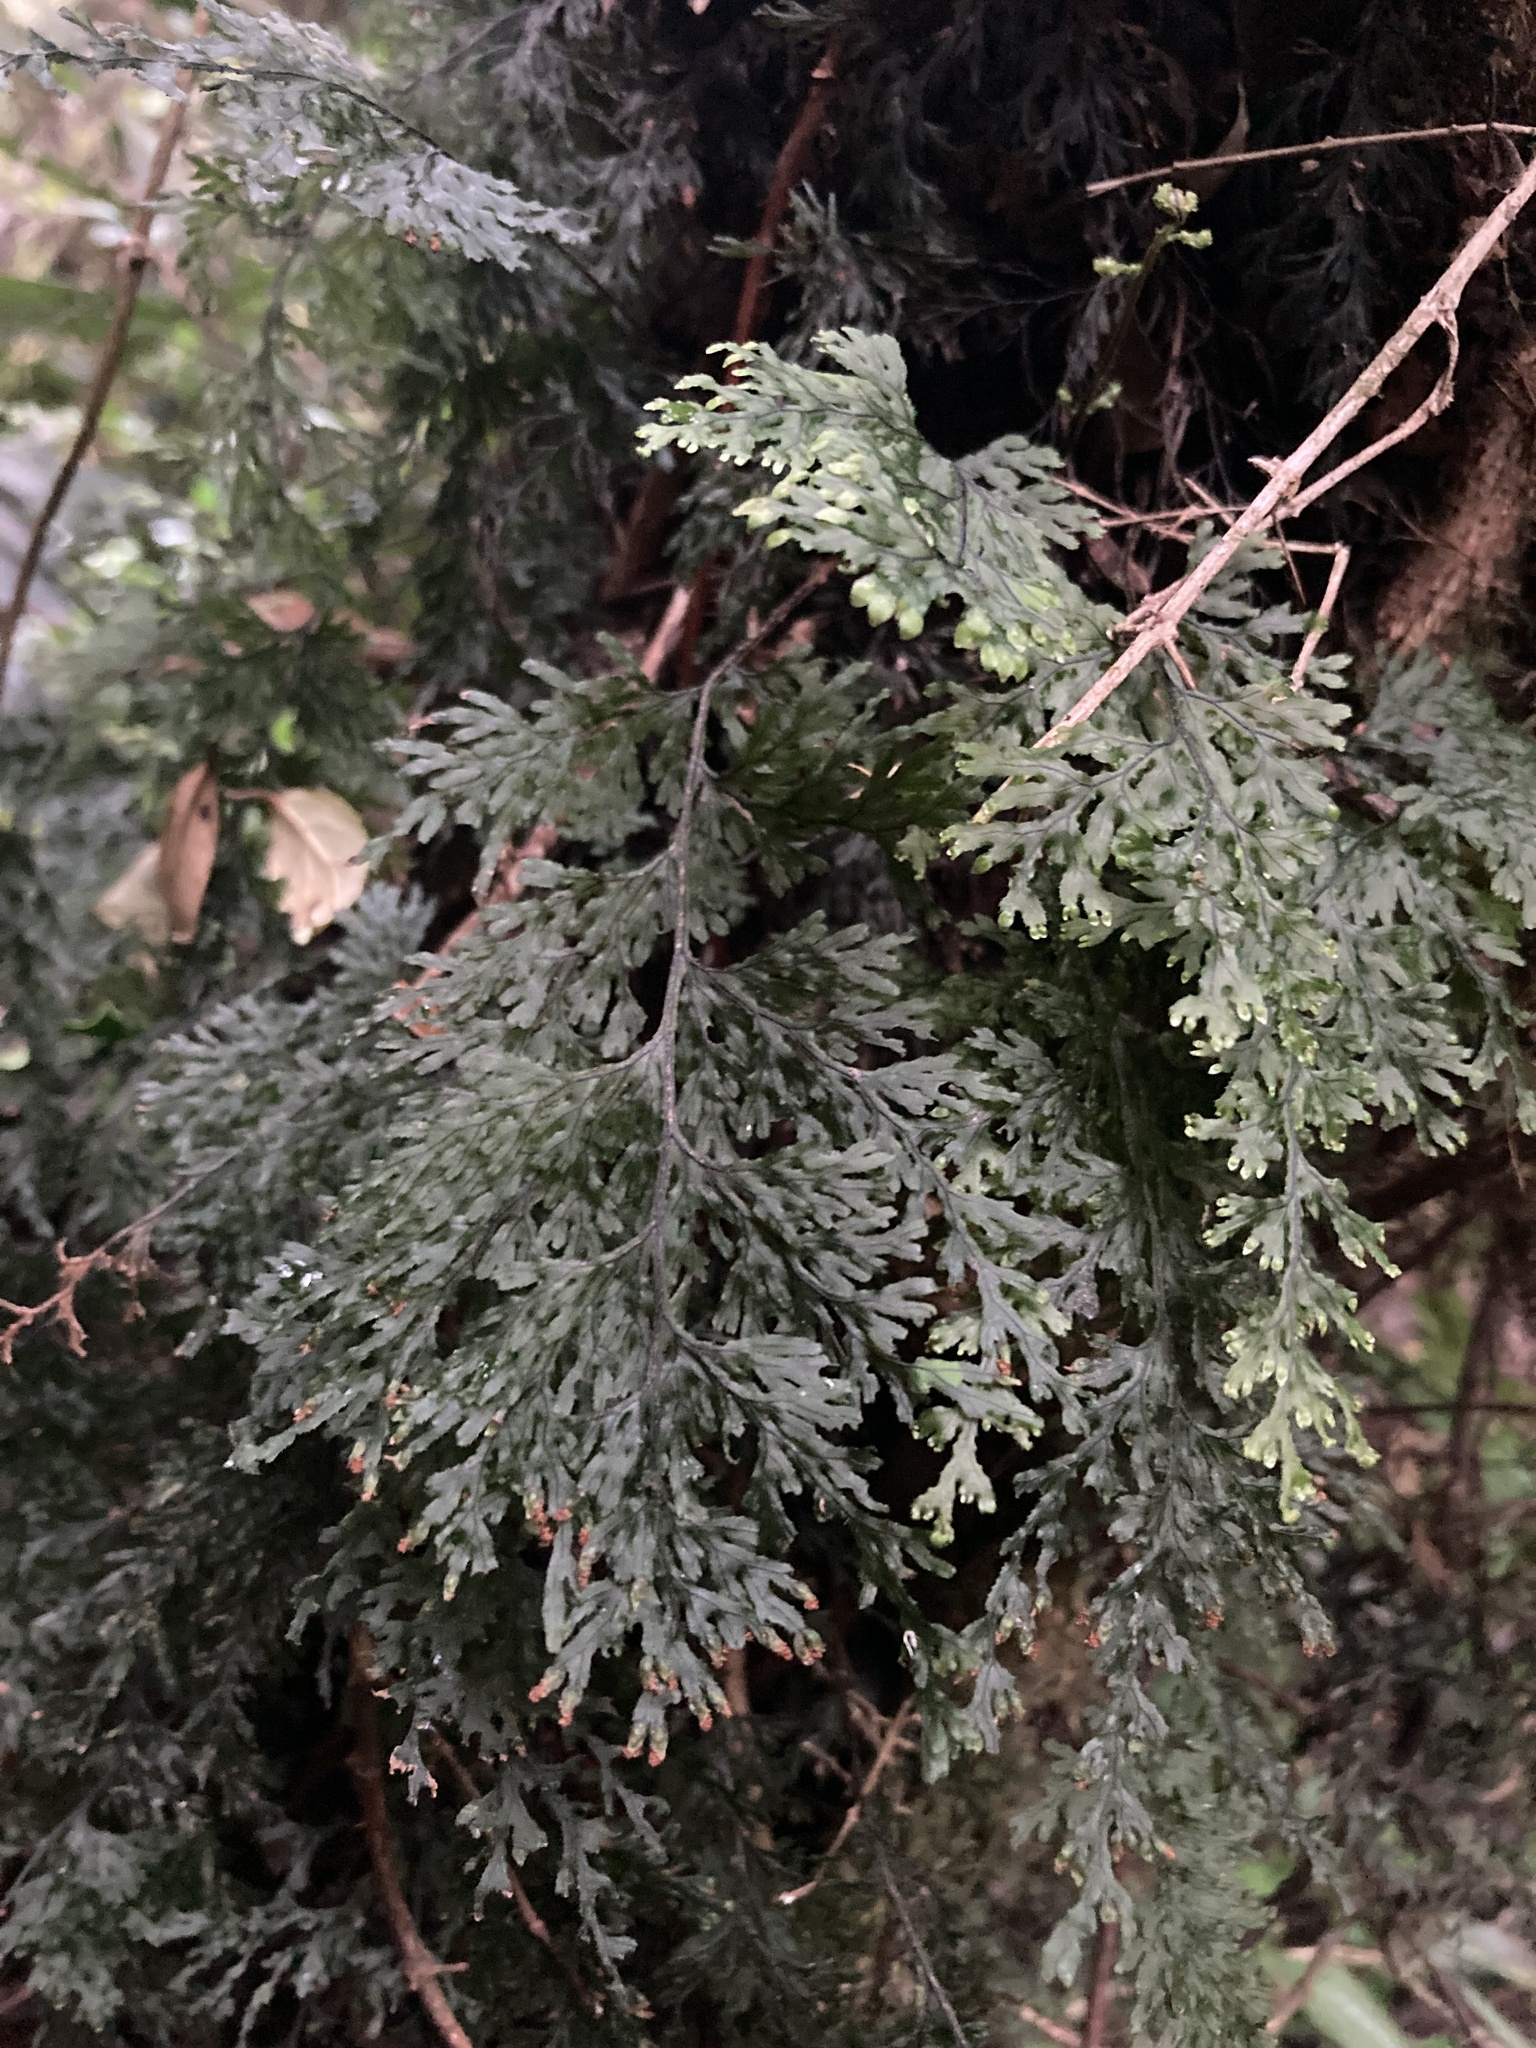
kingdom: Plantae
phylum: Tracheophyta
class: Polypodiopsida
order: Hymenophyllales
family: Hymenophyllaceae
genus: Hymenophyllum
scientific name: Hymenophyllum krauseanum
